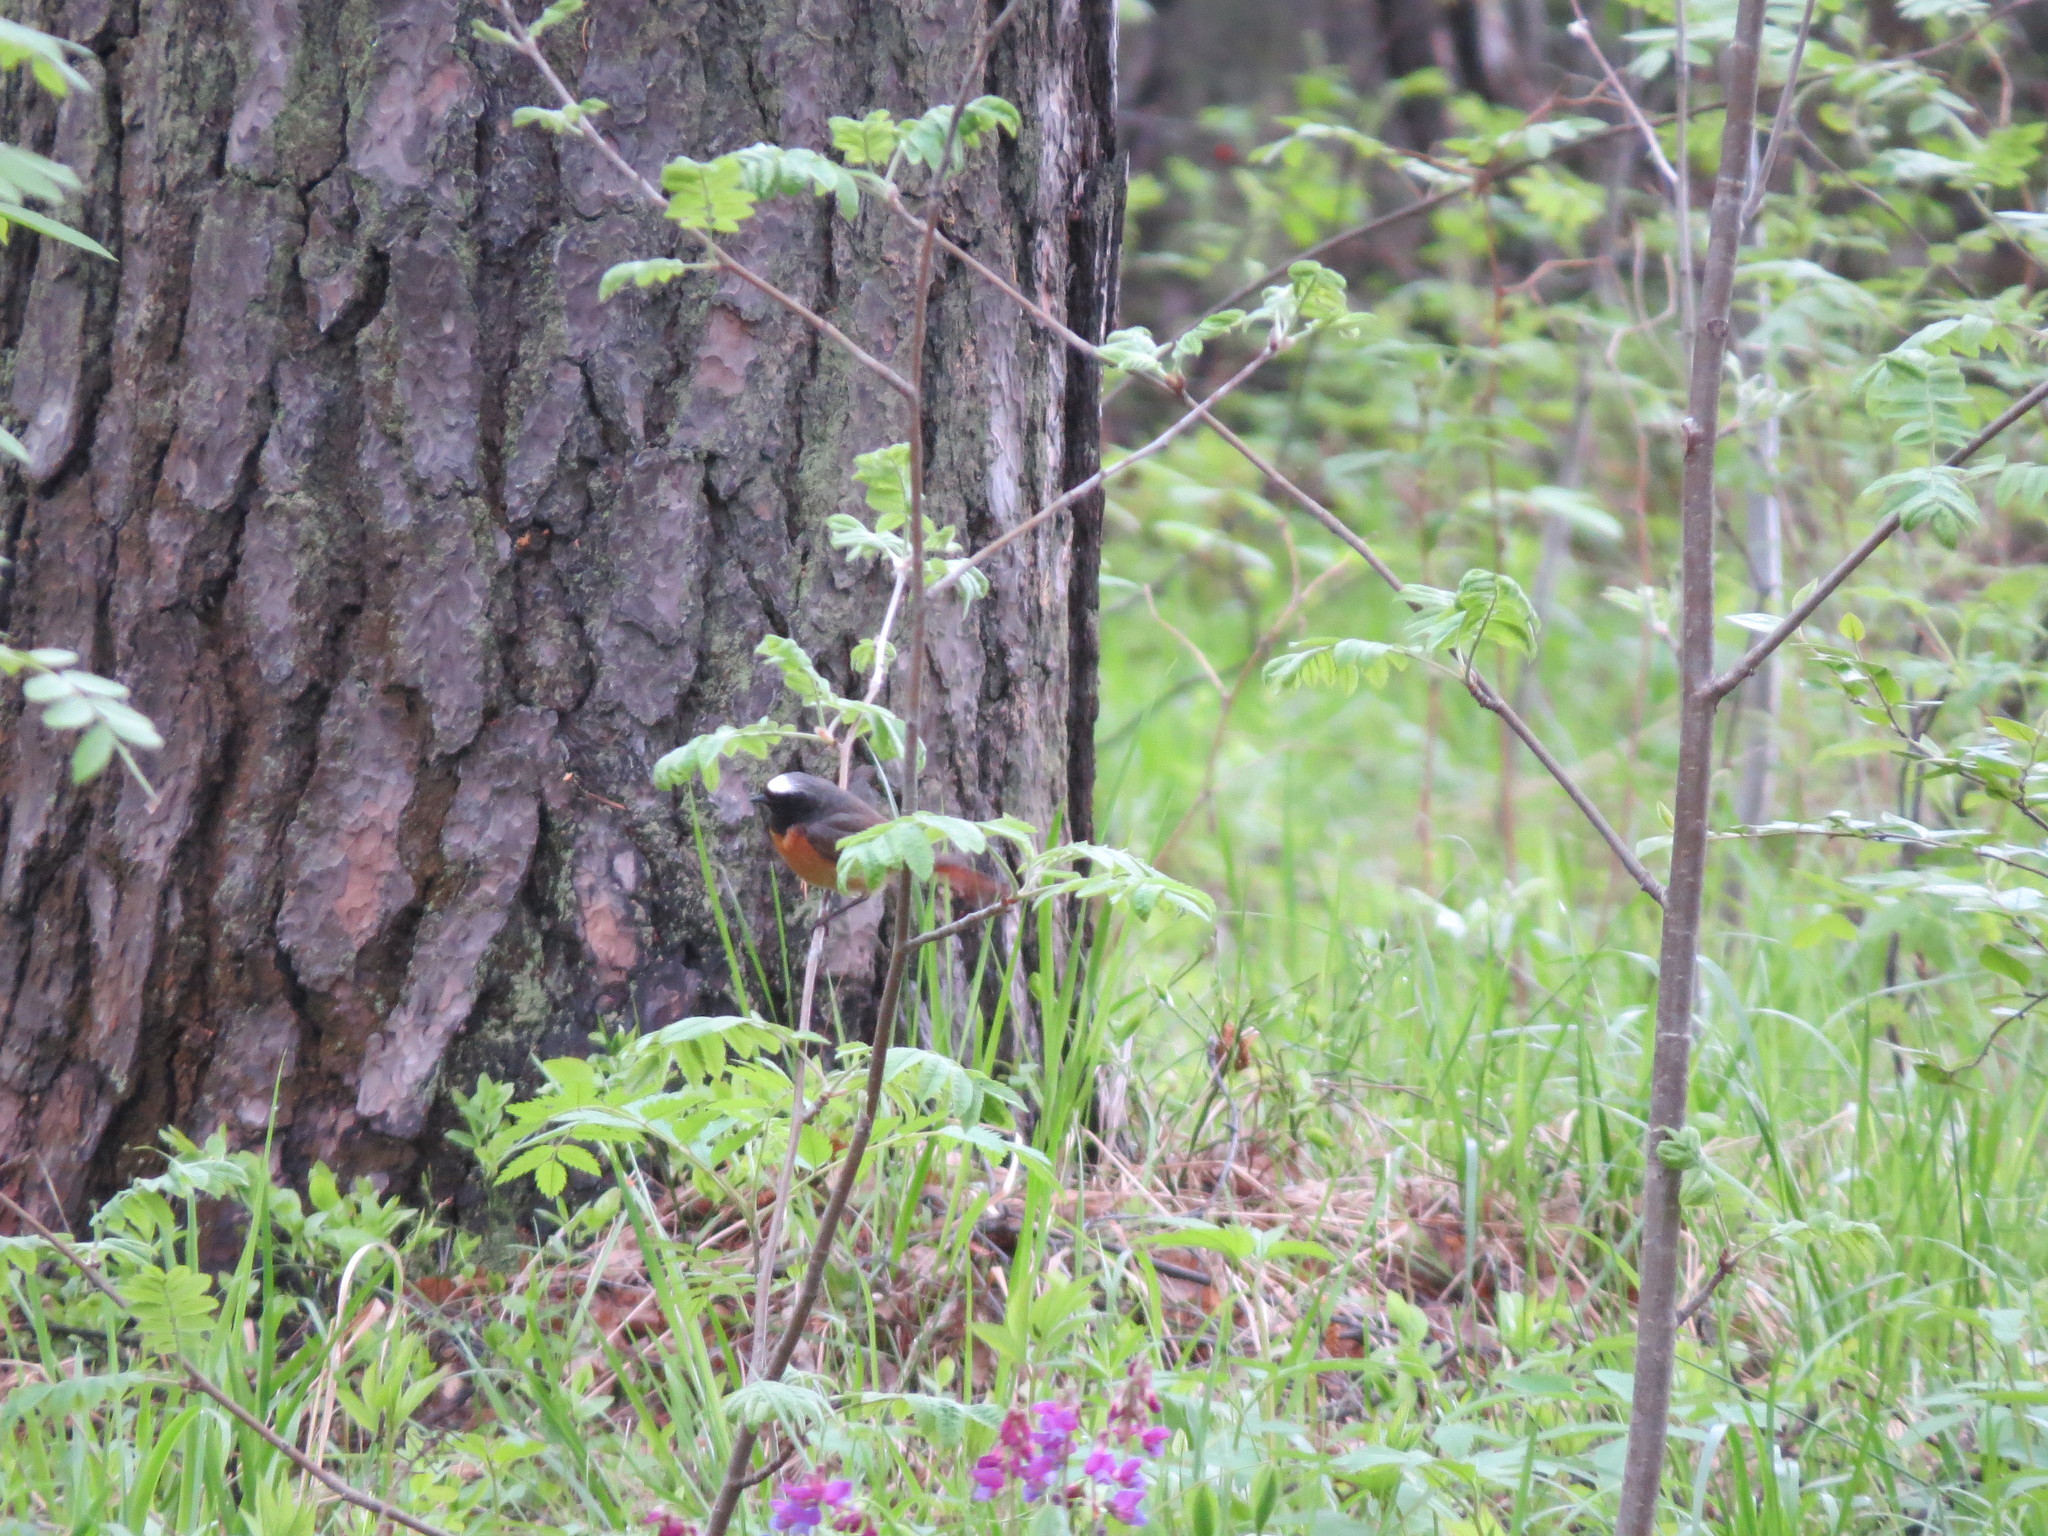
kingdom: Animalia
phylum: Chordata
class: Aves
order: Passeriformes
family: Muscicapidae
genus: Phoenicurus
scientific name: Phoenicurus phoenicurus
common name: Common redstart
